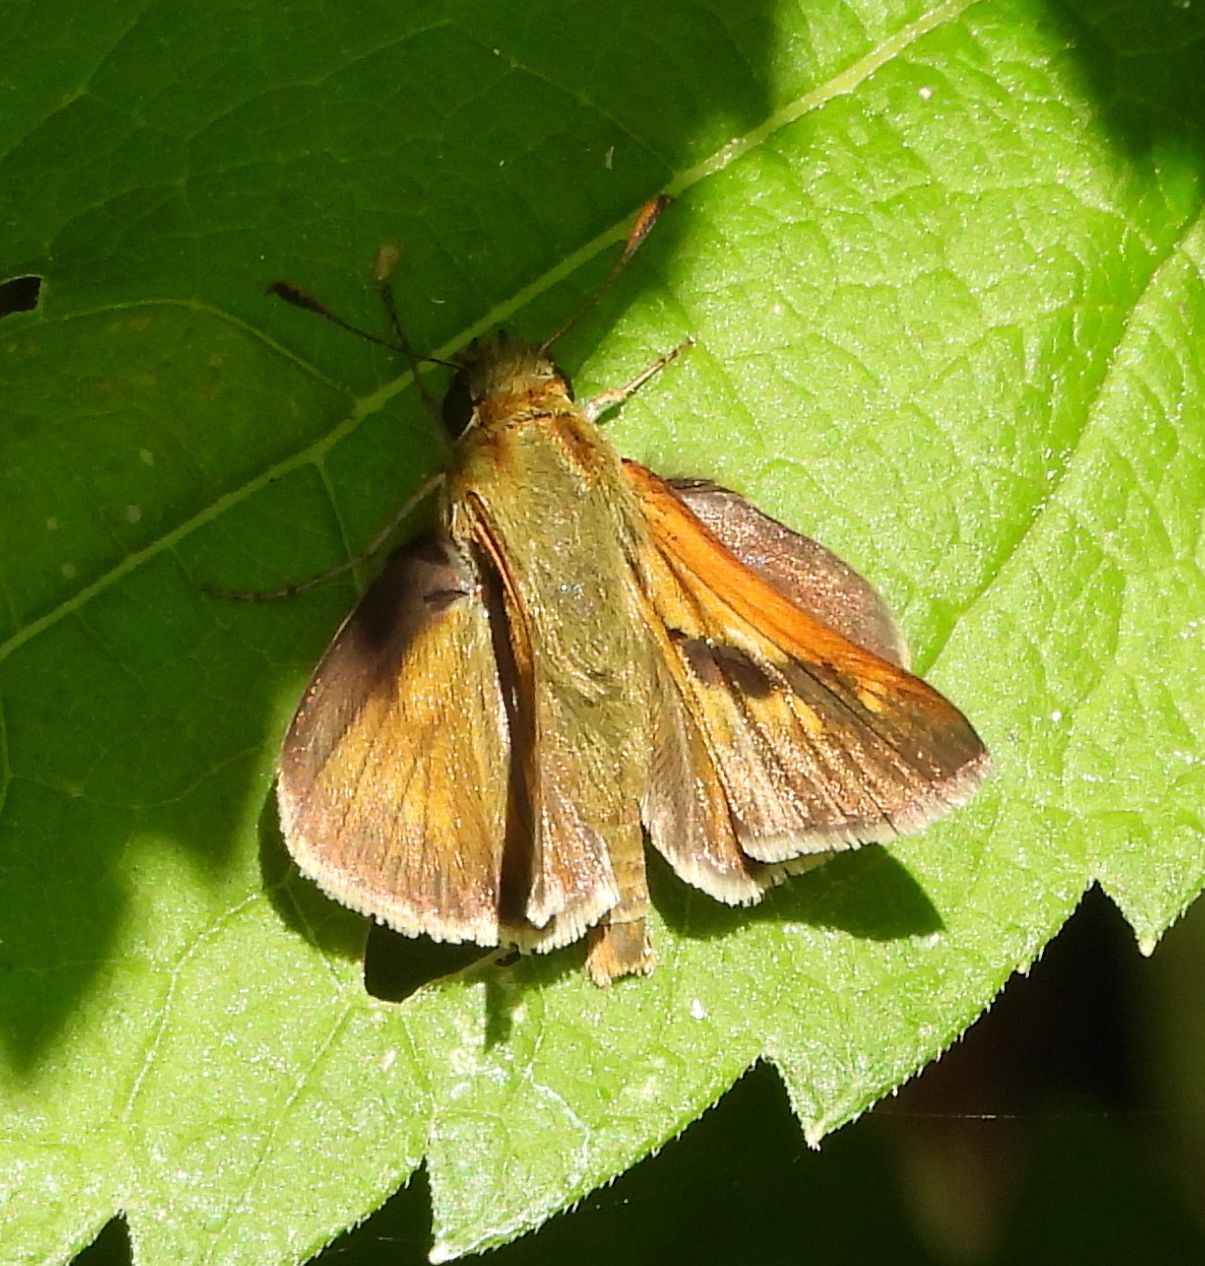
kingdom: Animalia
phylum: Arthropoda
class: Insecta
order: Lepidoptera
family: Hesperiidae
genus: Polites
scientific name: Polites mystic
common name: Long dash
